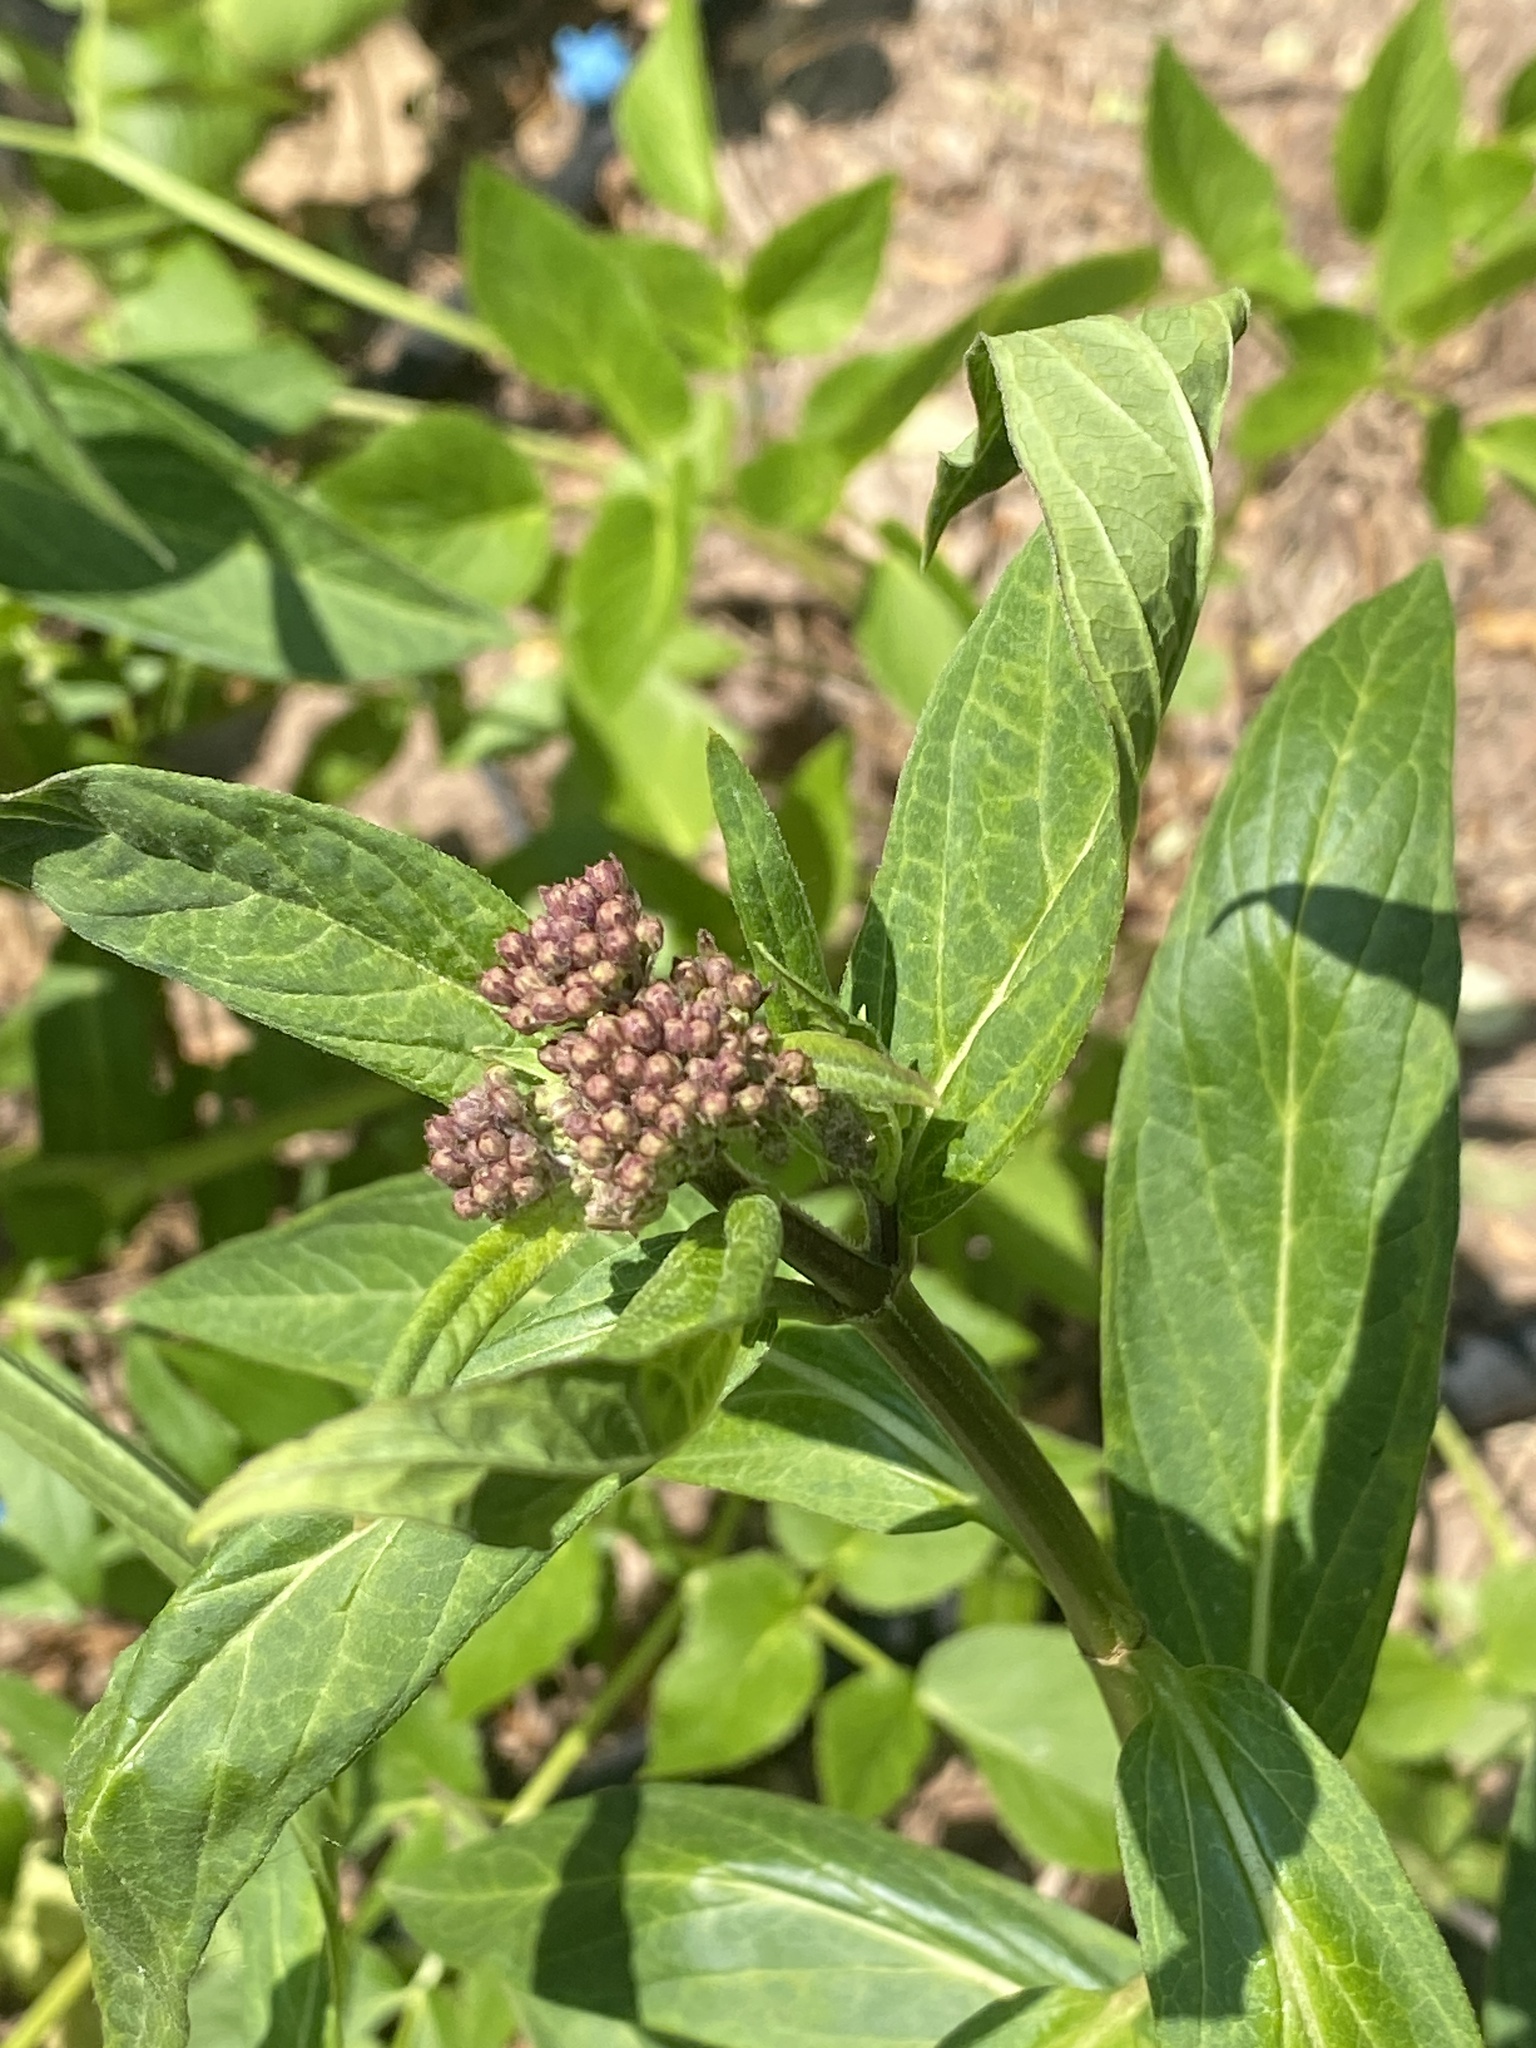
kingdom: Plantae
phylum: Tracheophyta
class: Magnoliopsida
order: Gentianales
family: Apocynaceae
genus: Asclepias
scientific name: Asclepias incarnata
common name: Swamp milkweed
